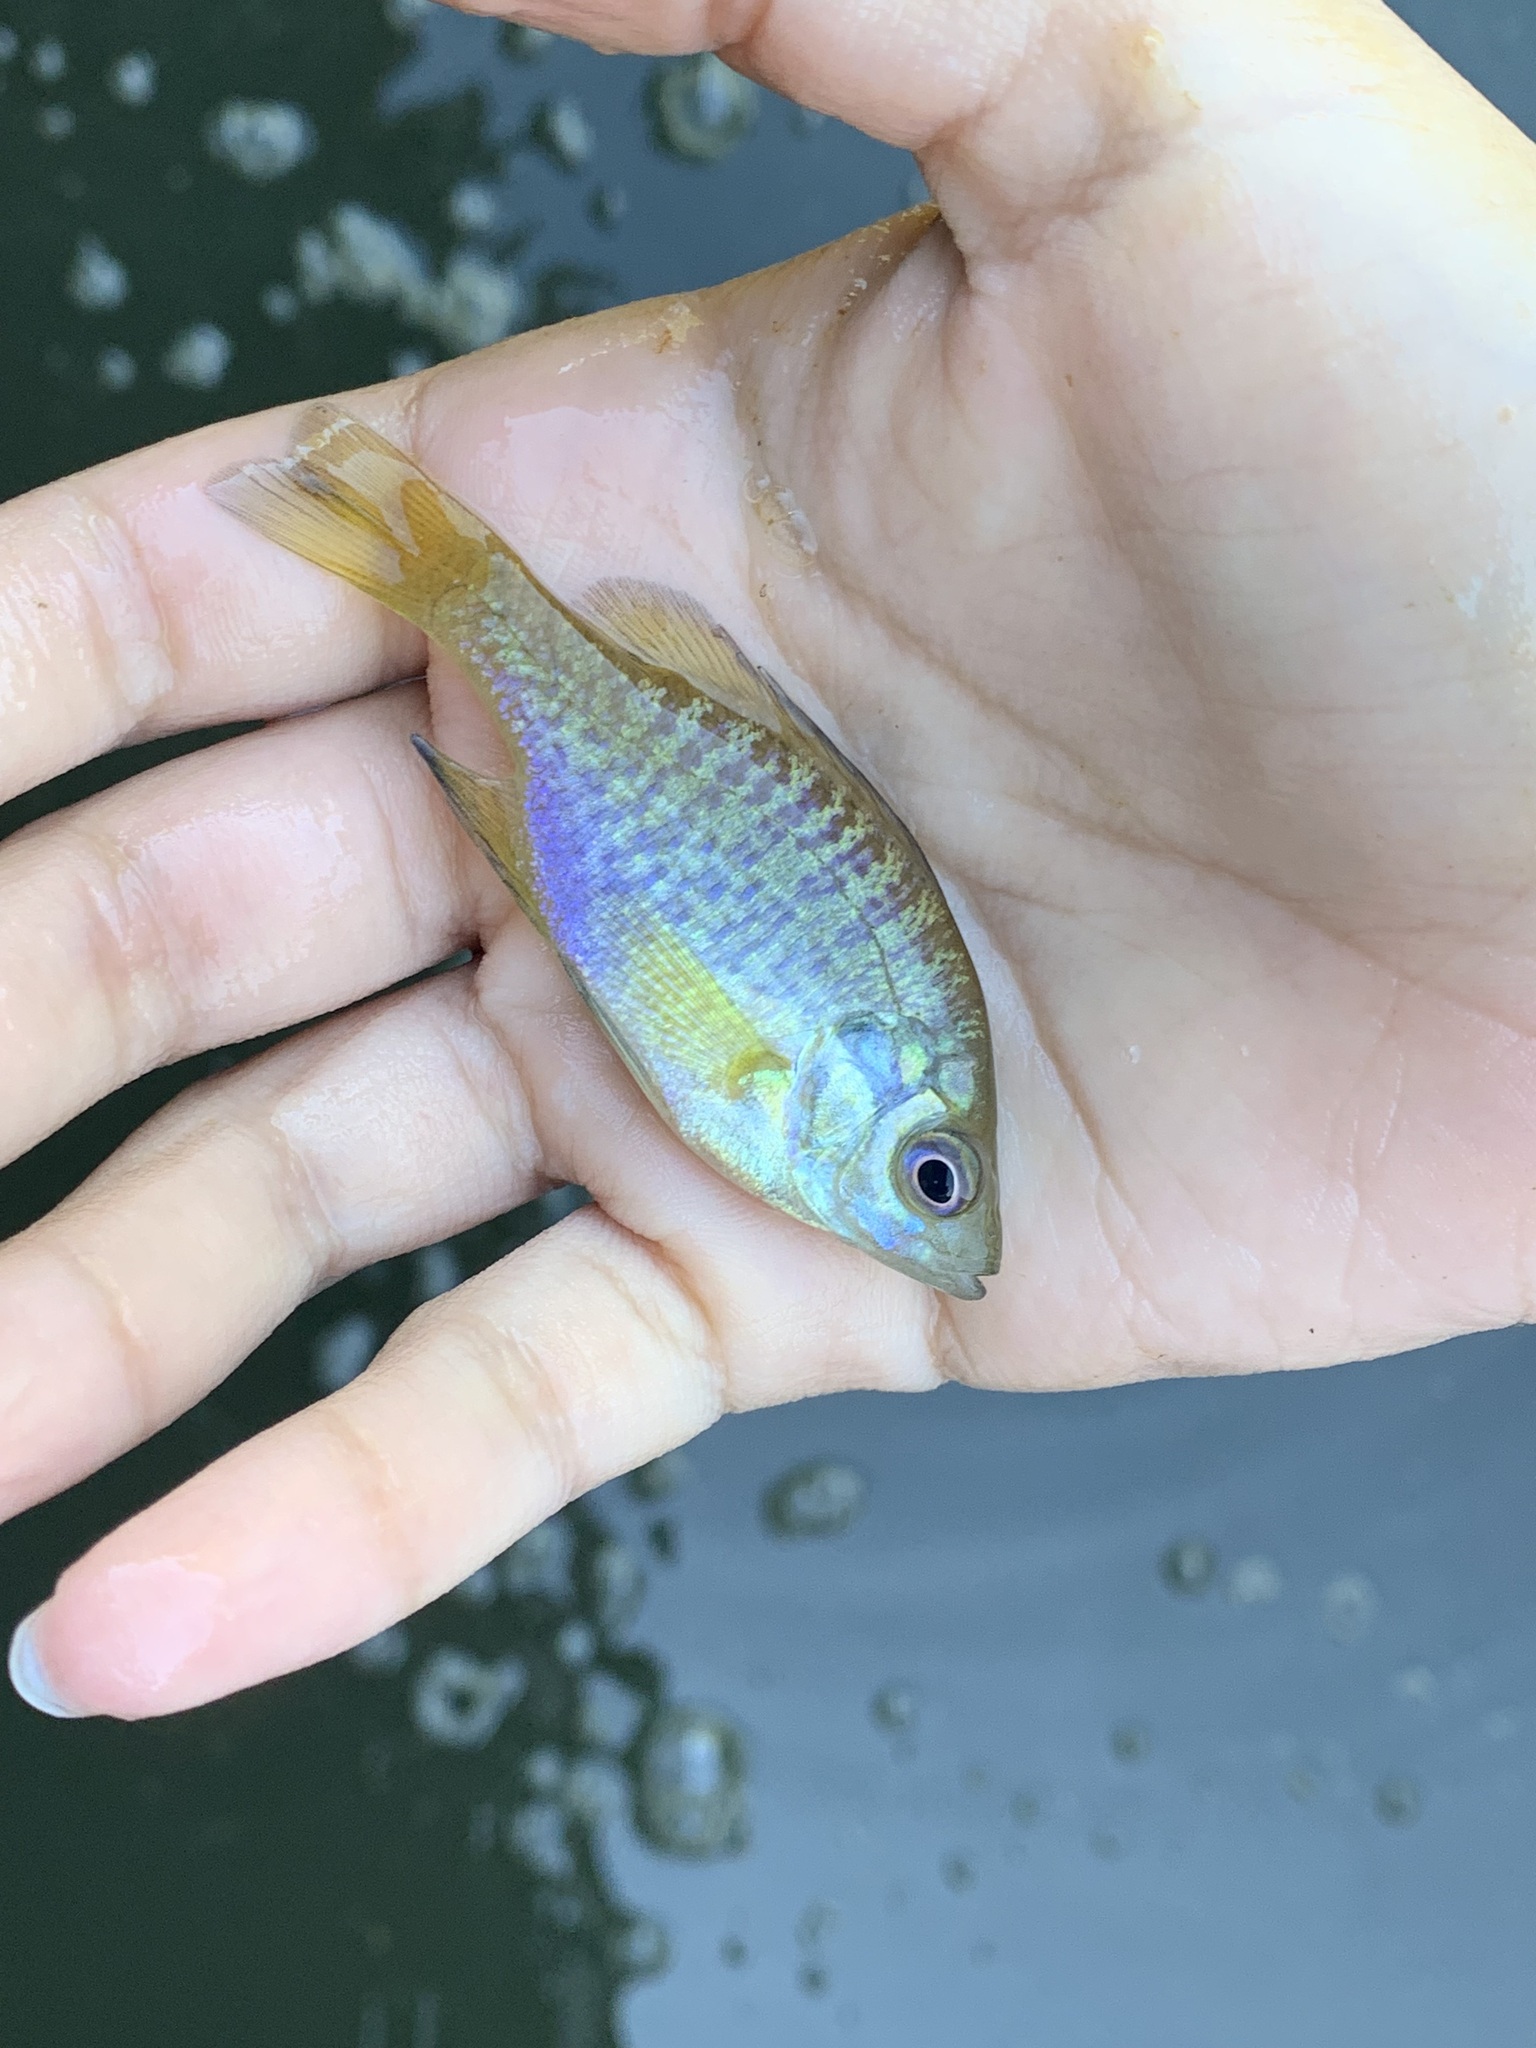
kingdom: Animalia
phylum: Chordata
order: Perciformes
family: Centrarchidae
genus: Lepomis
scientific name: Lepomis macrochirus
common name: Bluegill
